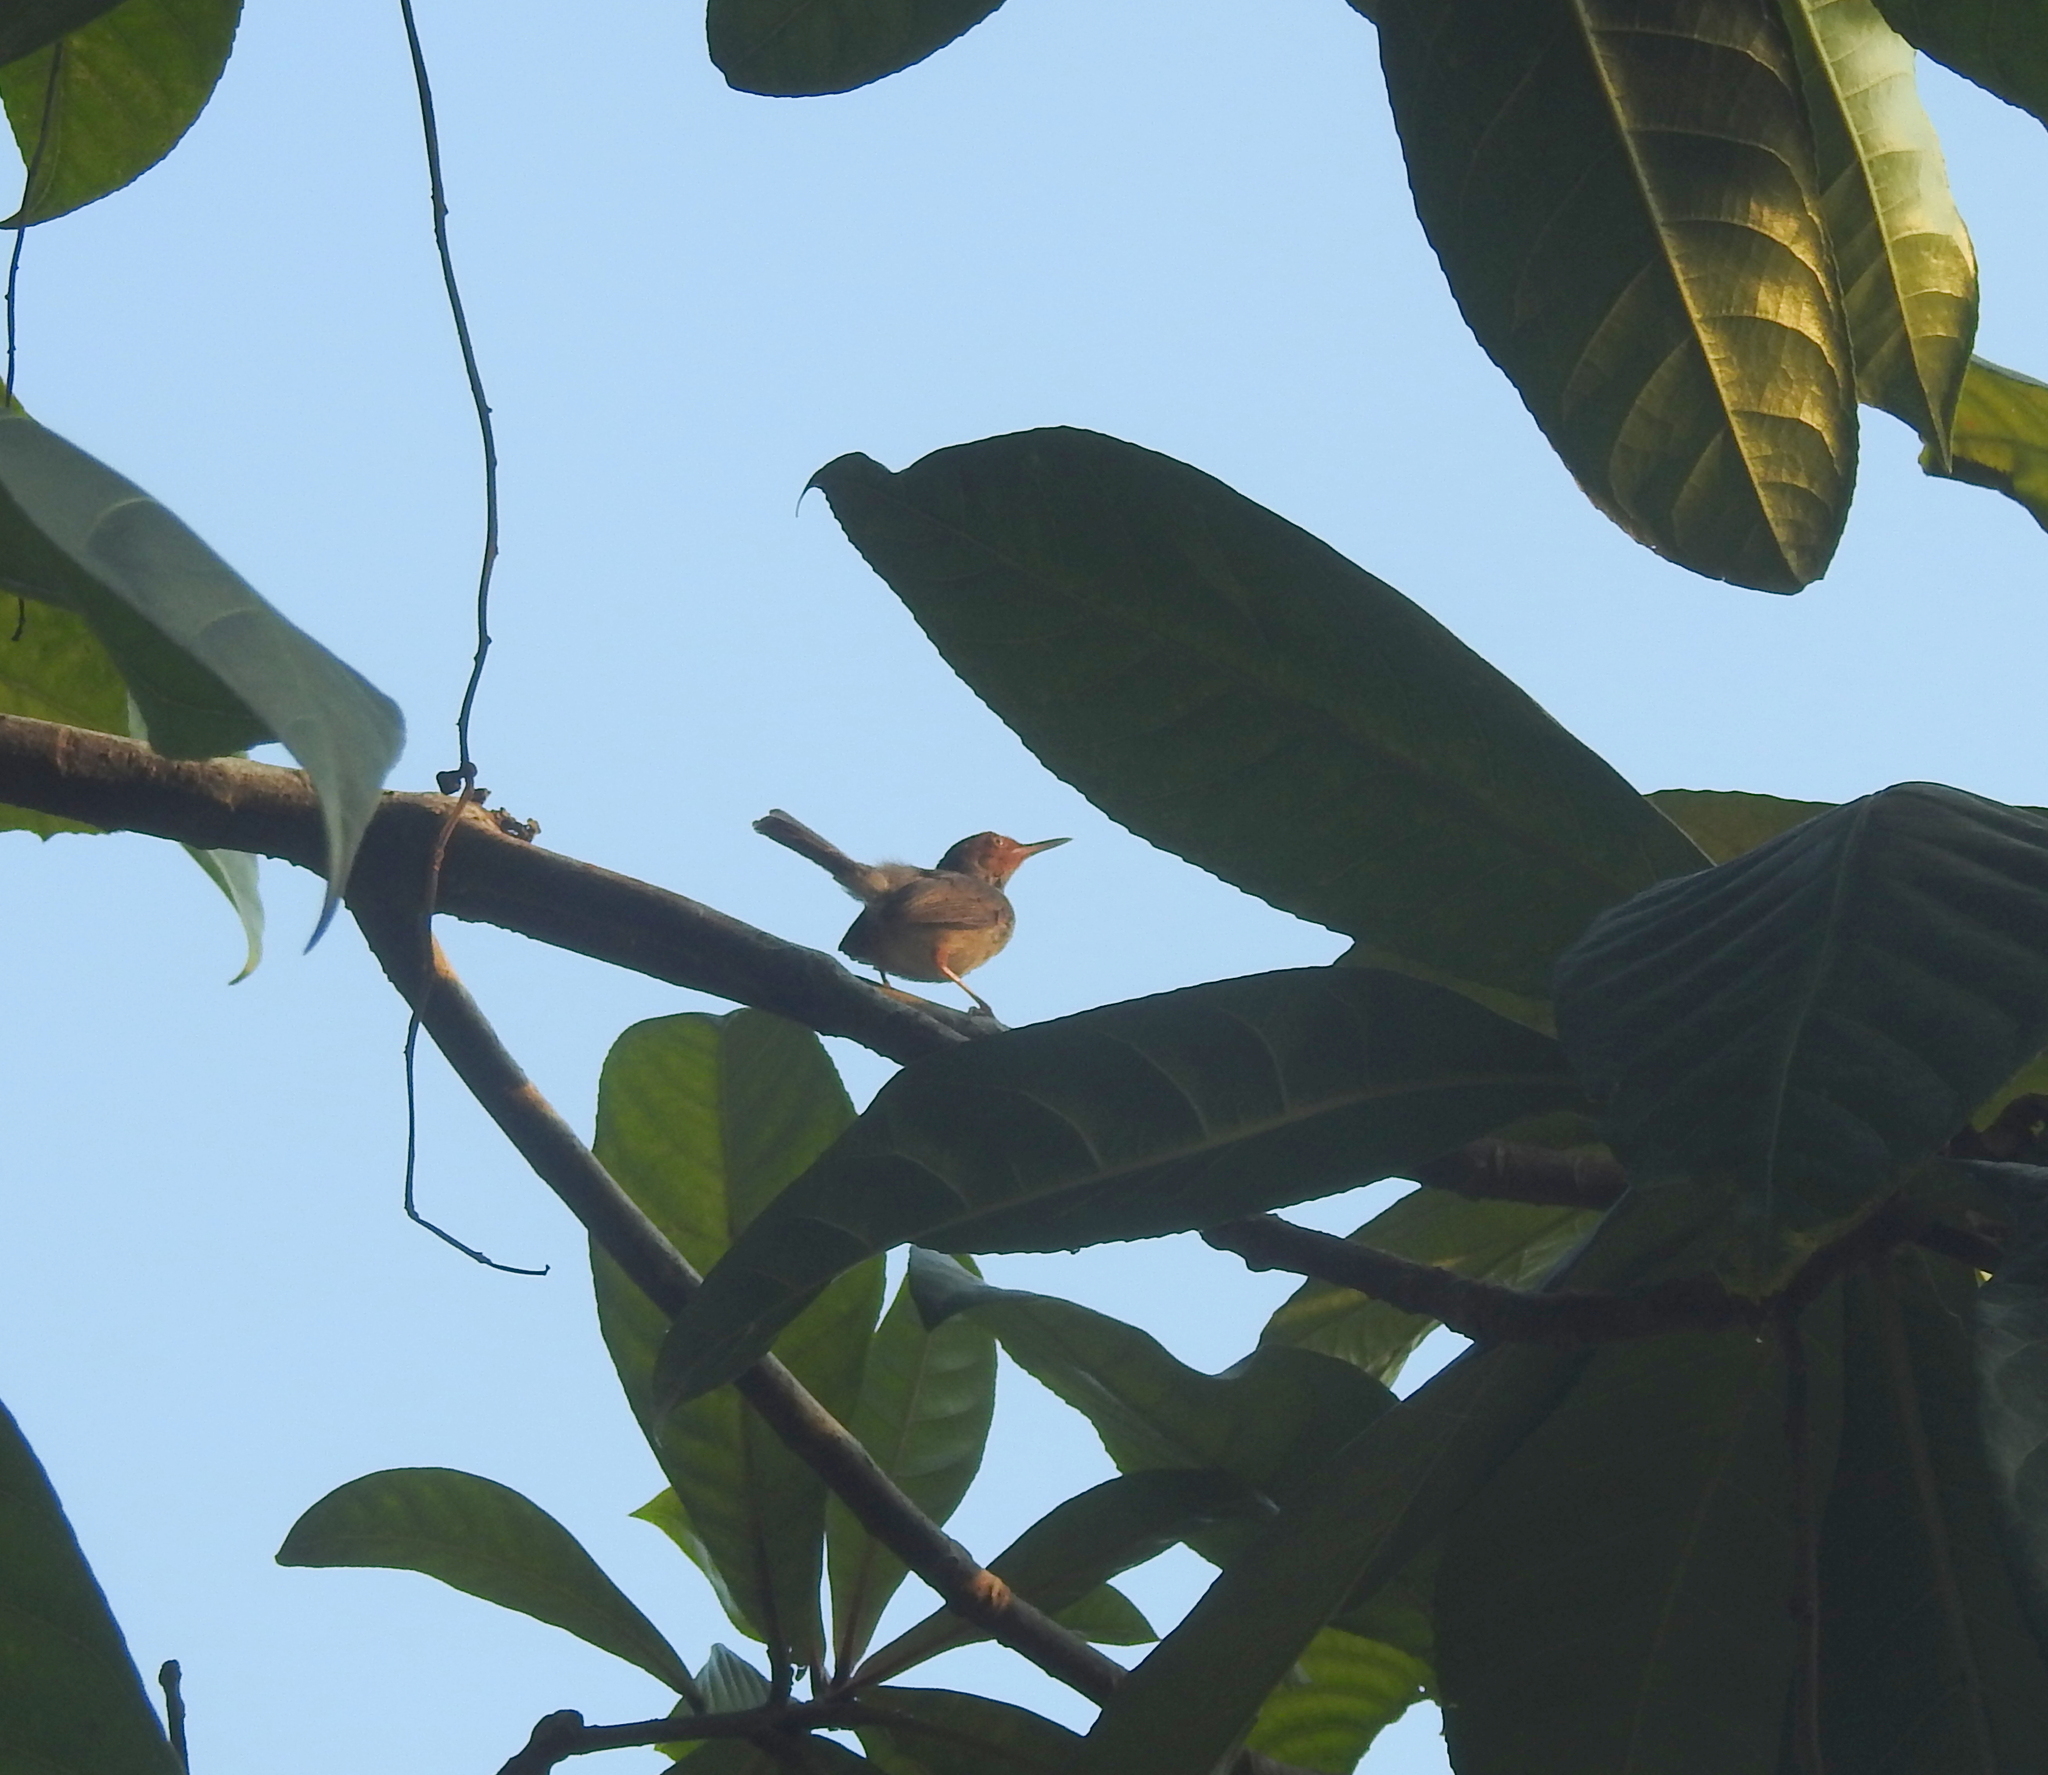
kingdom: Animalia
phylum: Chordata
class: Aves
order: Passeriformes
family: Cisticolidae
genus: Orthotomus
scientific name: Orthotomus ruficeps
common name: Ashy tailorbird
